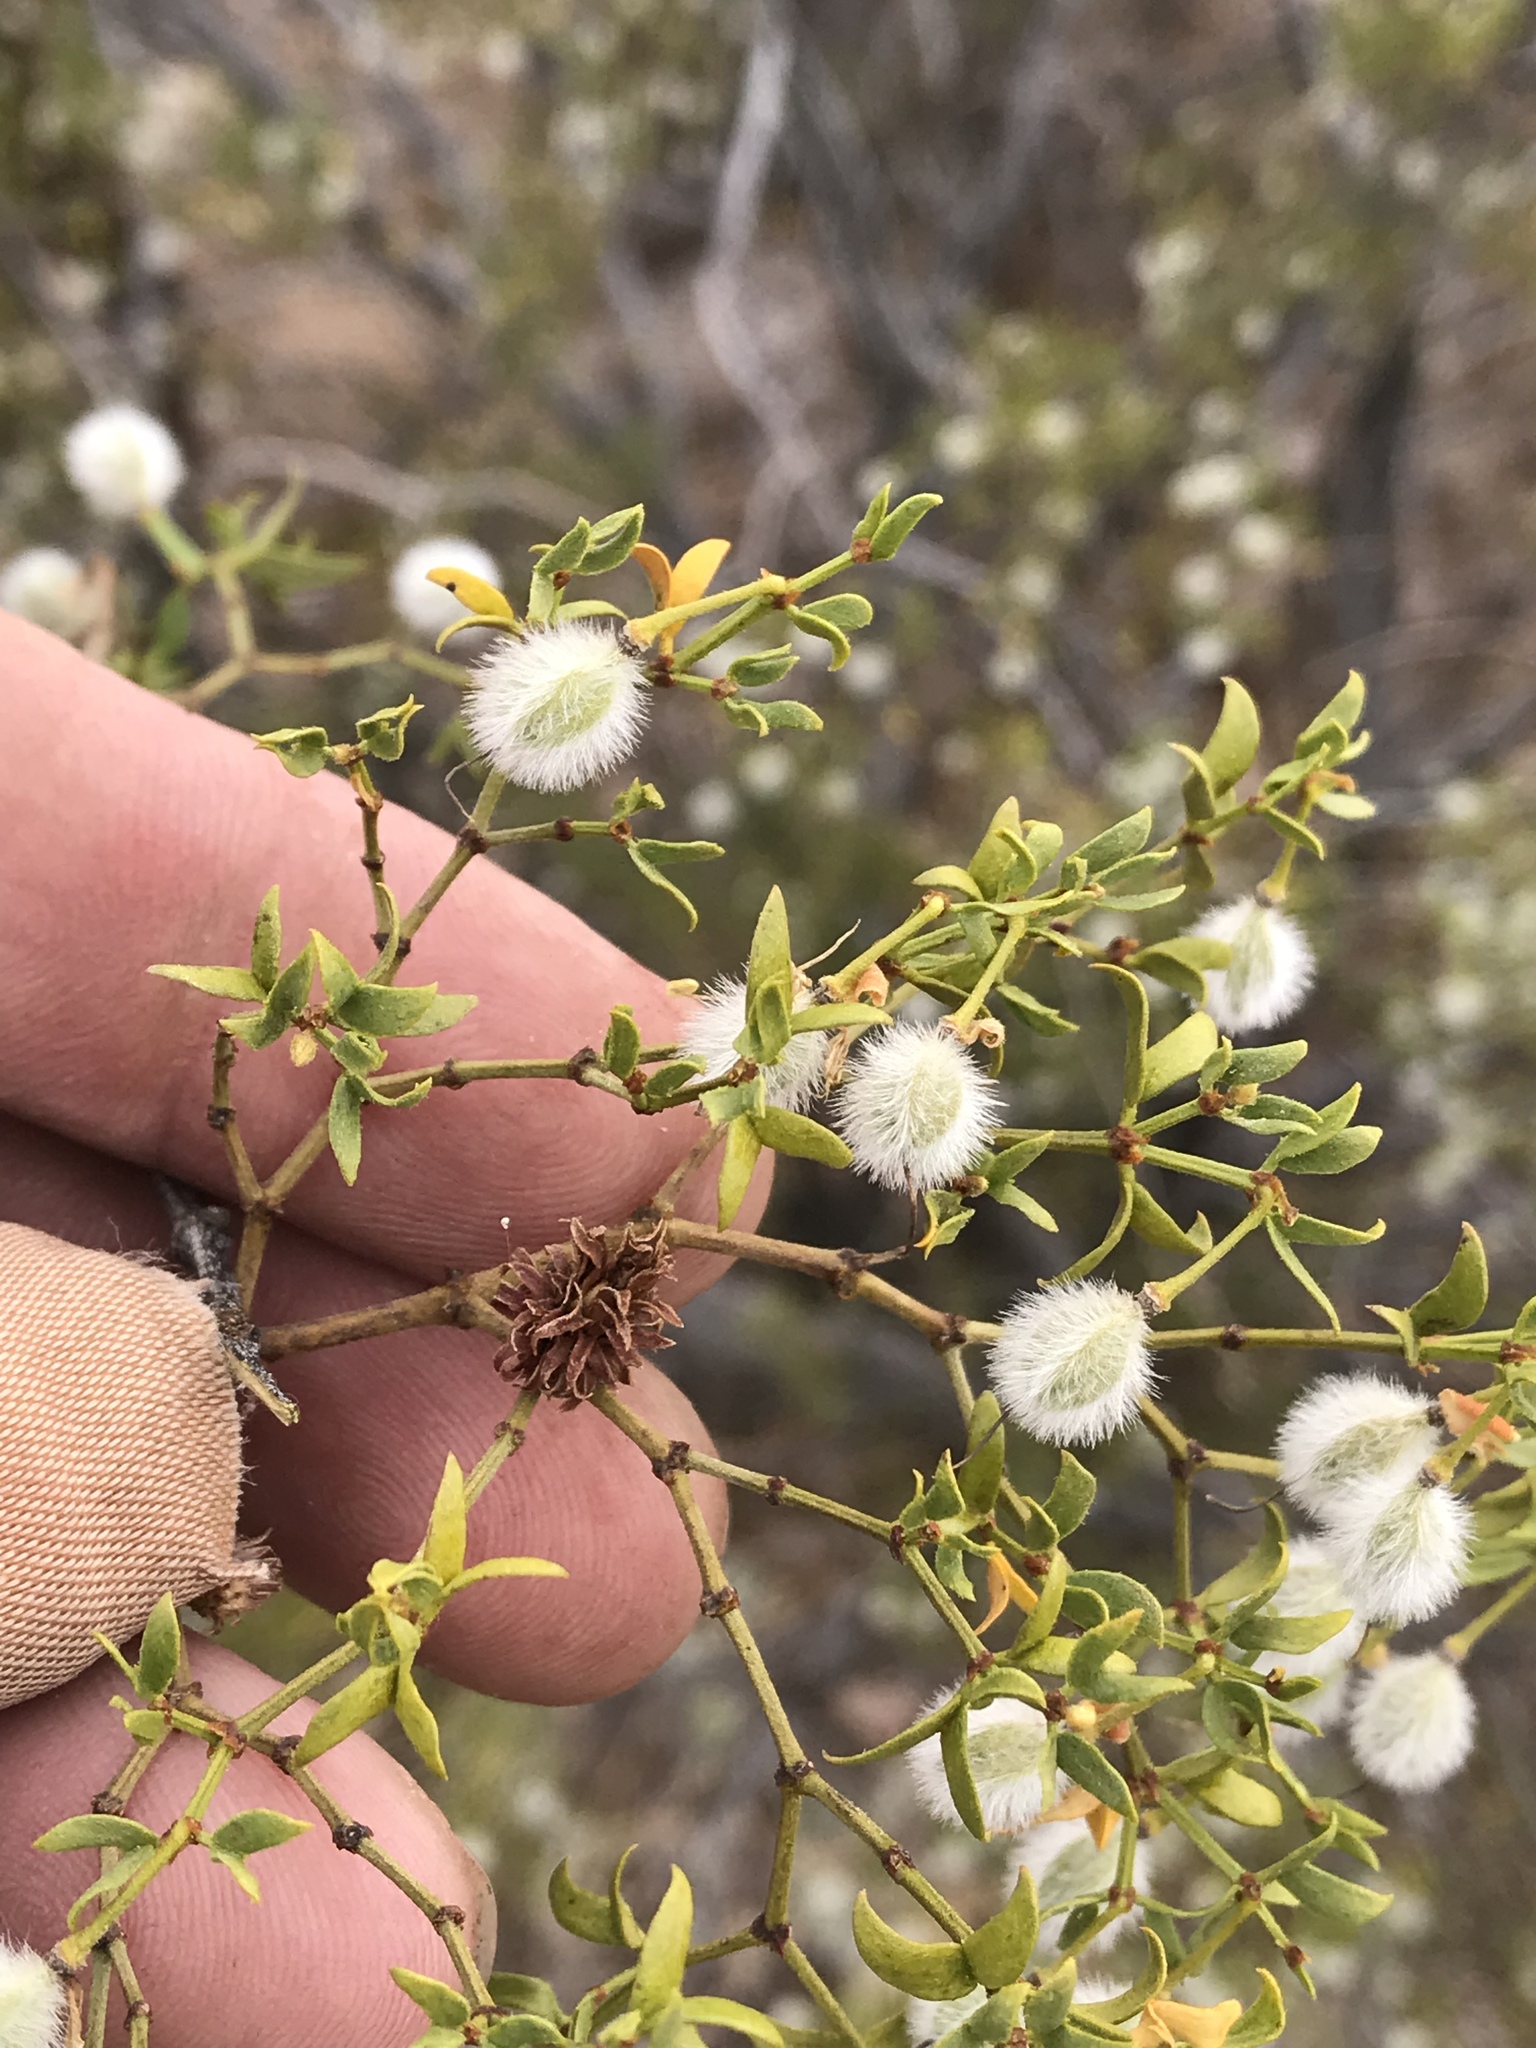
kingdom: Animalia
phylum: Arthropoda
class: Insecta
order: Diptera
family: Cecidomyiidae
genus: Asphondylia
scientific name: Asphondylia rosetta
